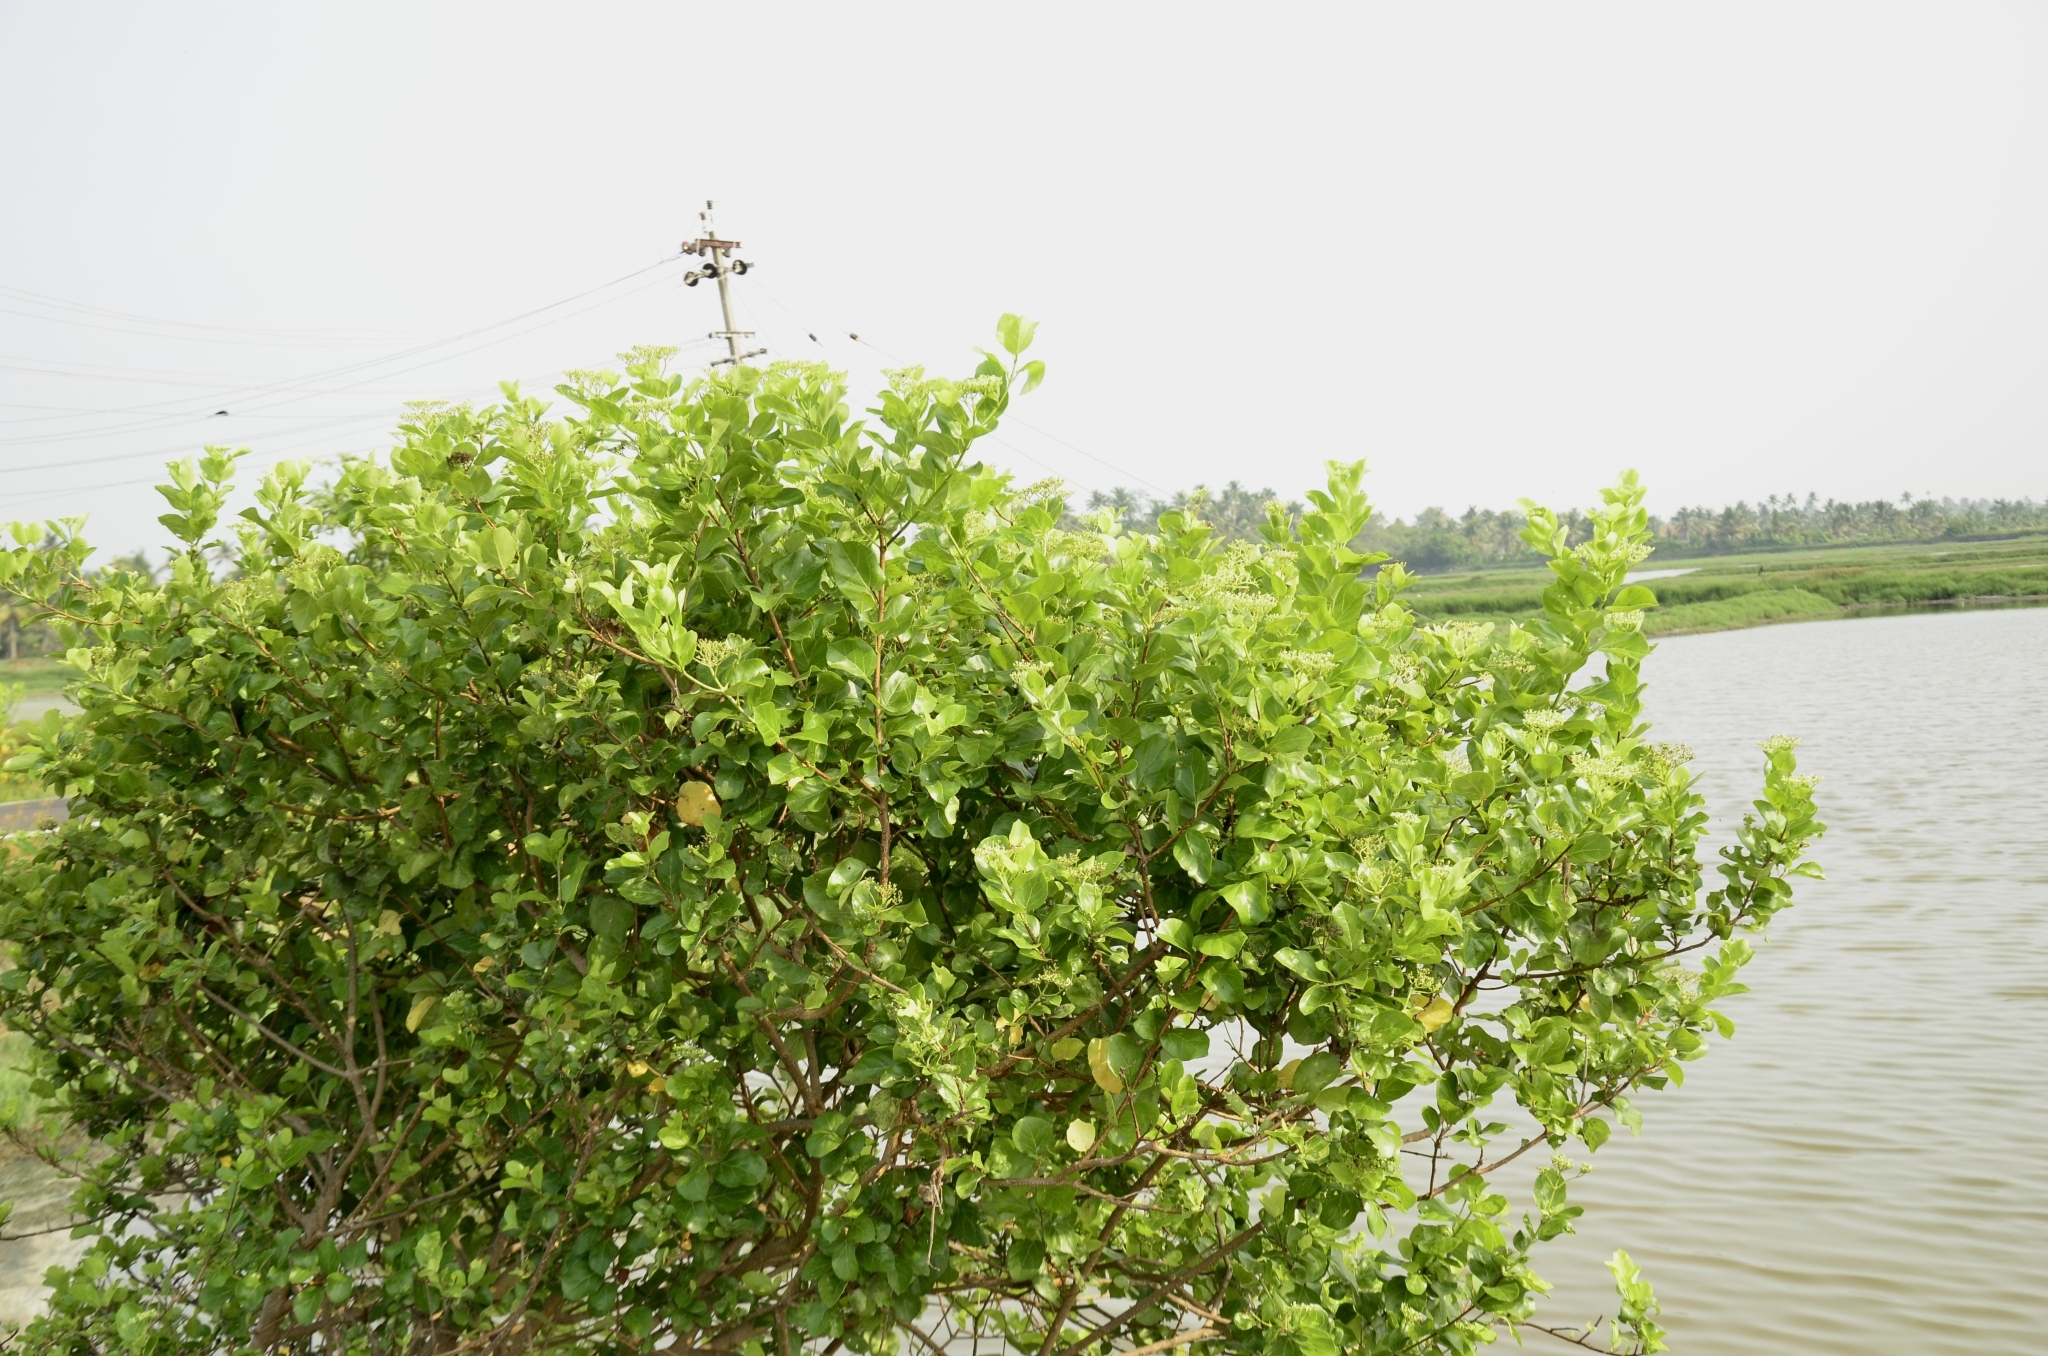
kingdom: Plantae
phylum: Tracheophyta
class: Magnoliopsida
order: Lamiales
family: Lamiaceae
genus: Premna
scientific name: Premna serratifolia
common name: Bastard guelder
